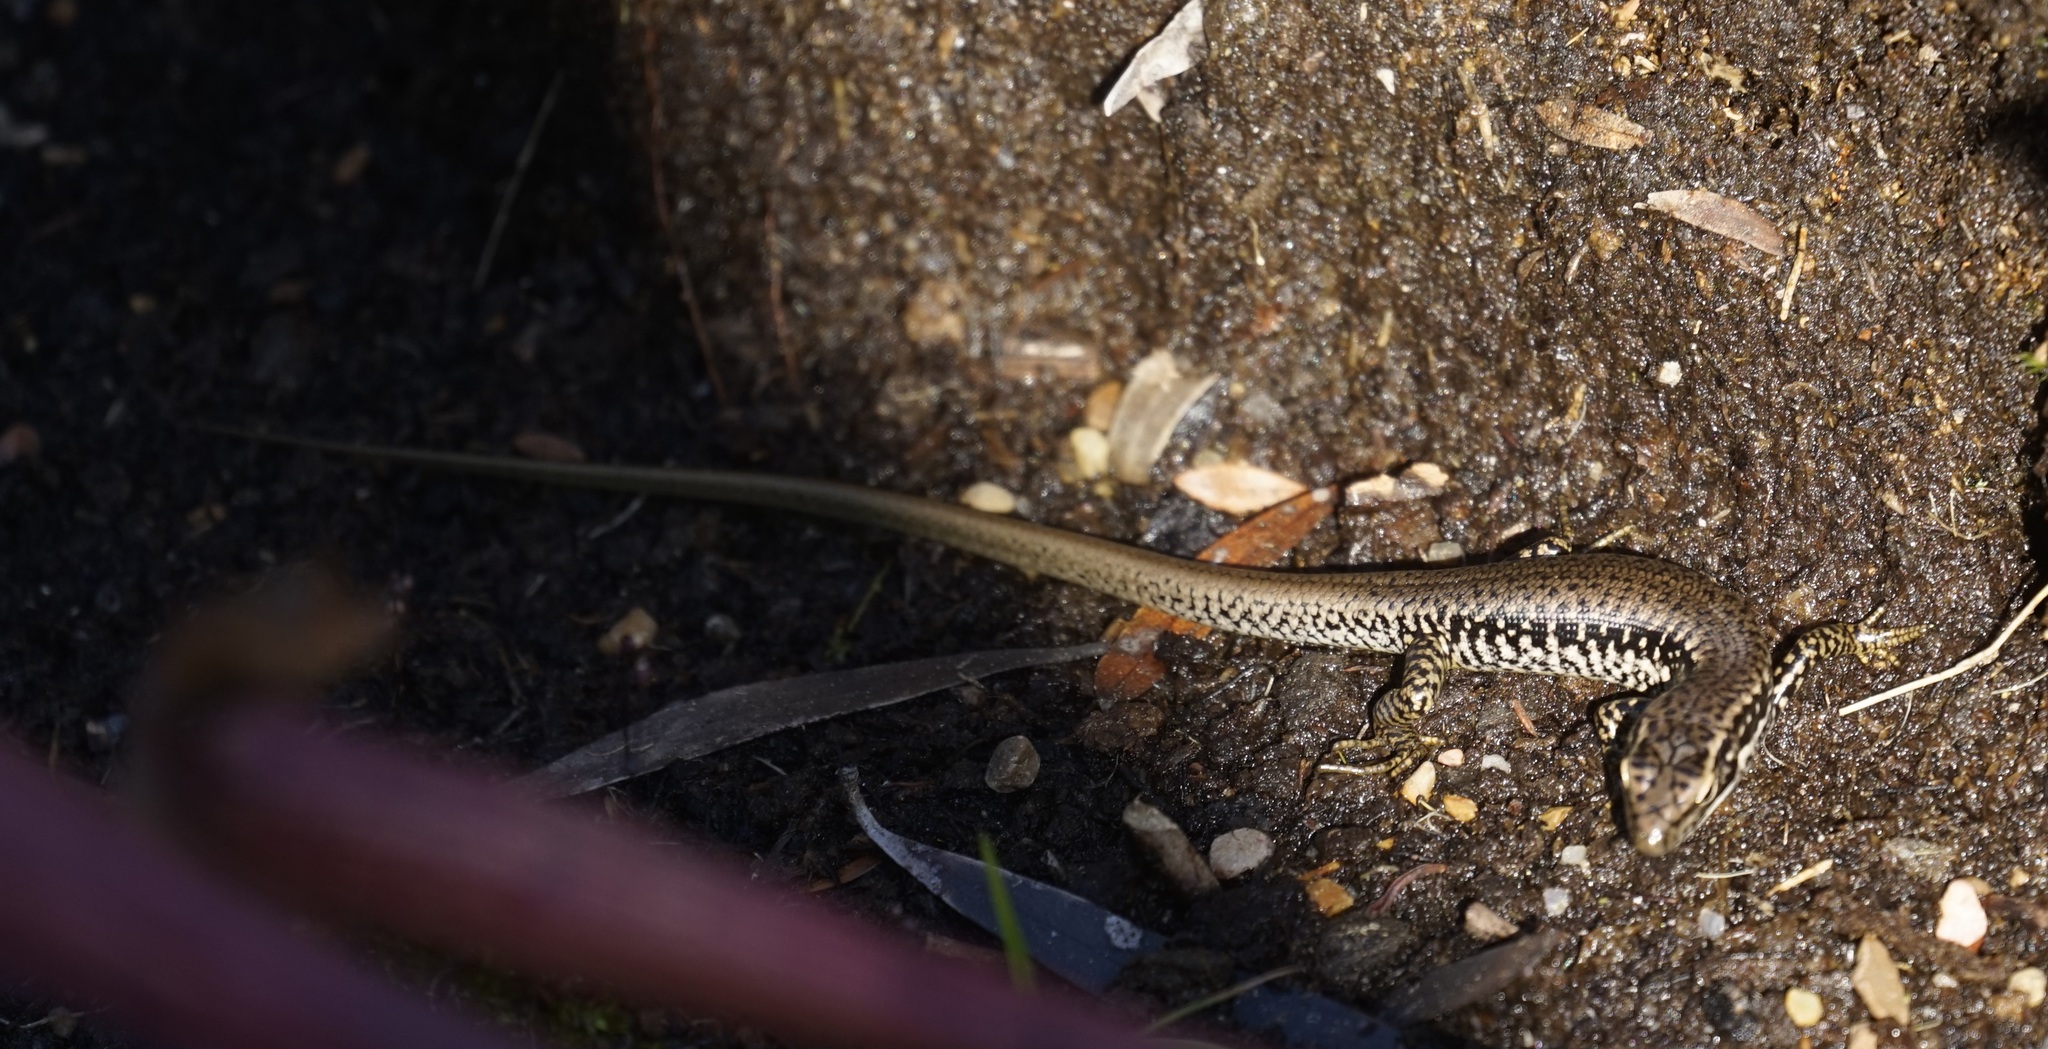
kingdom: Animalia
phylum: Chordata
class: Squamata
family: Scincidae
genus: Eulamprus
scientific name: Eulamprus heatwolei
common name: Warm-temperate water-skink
